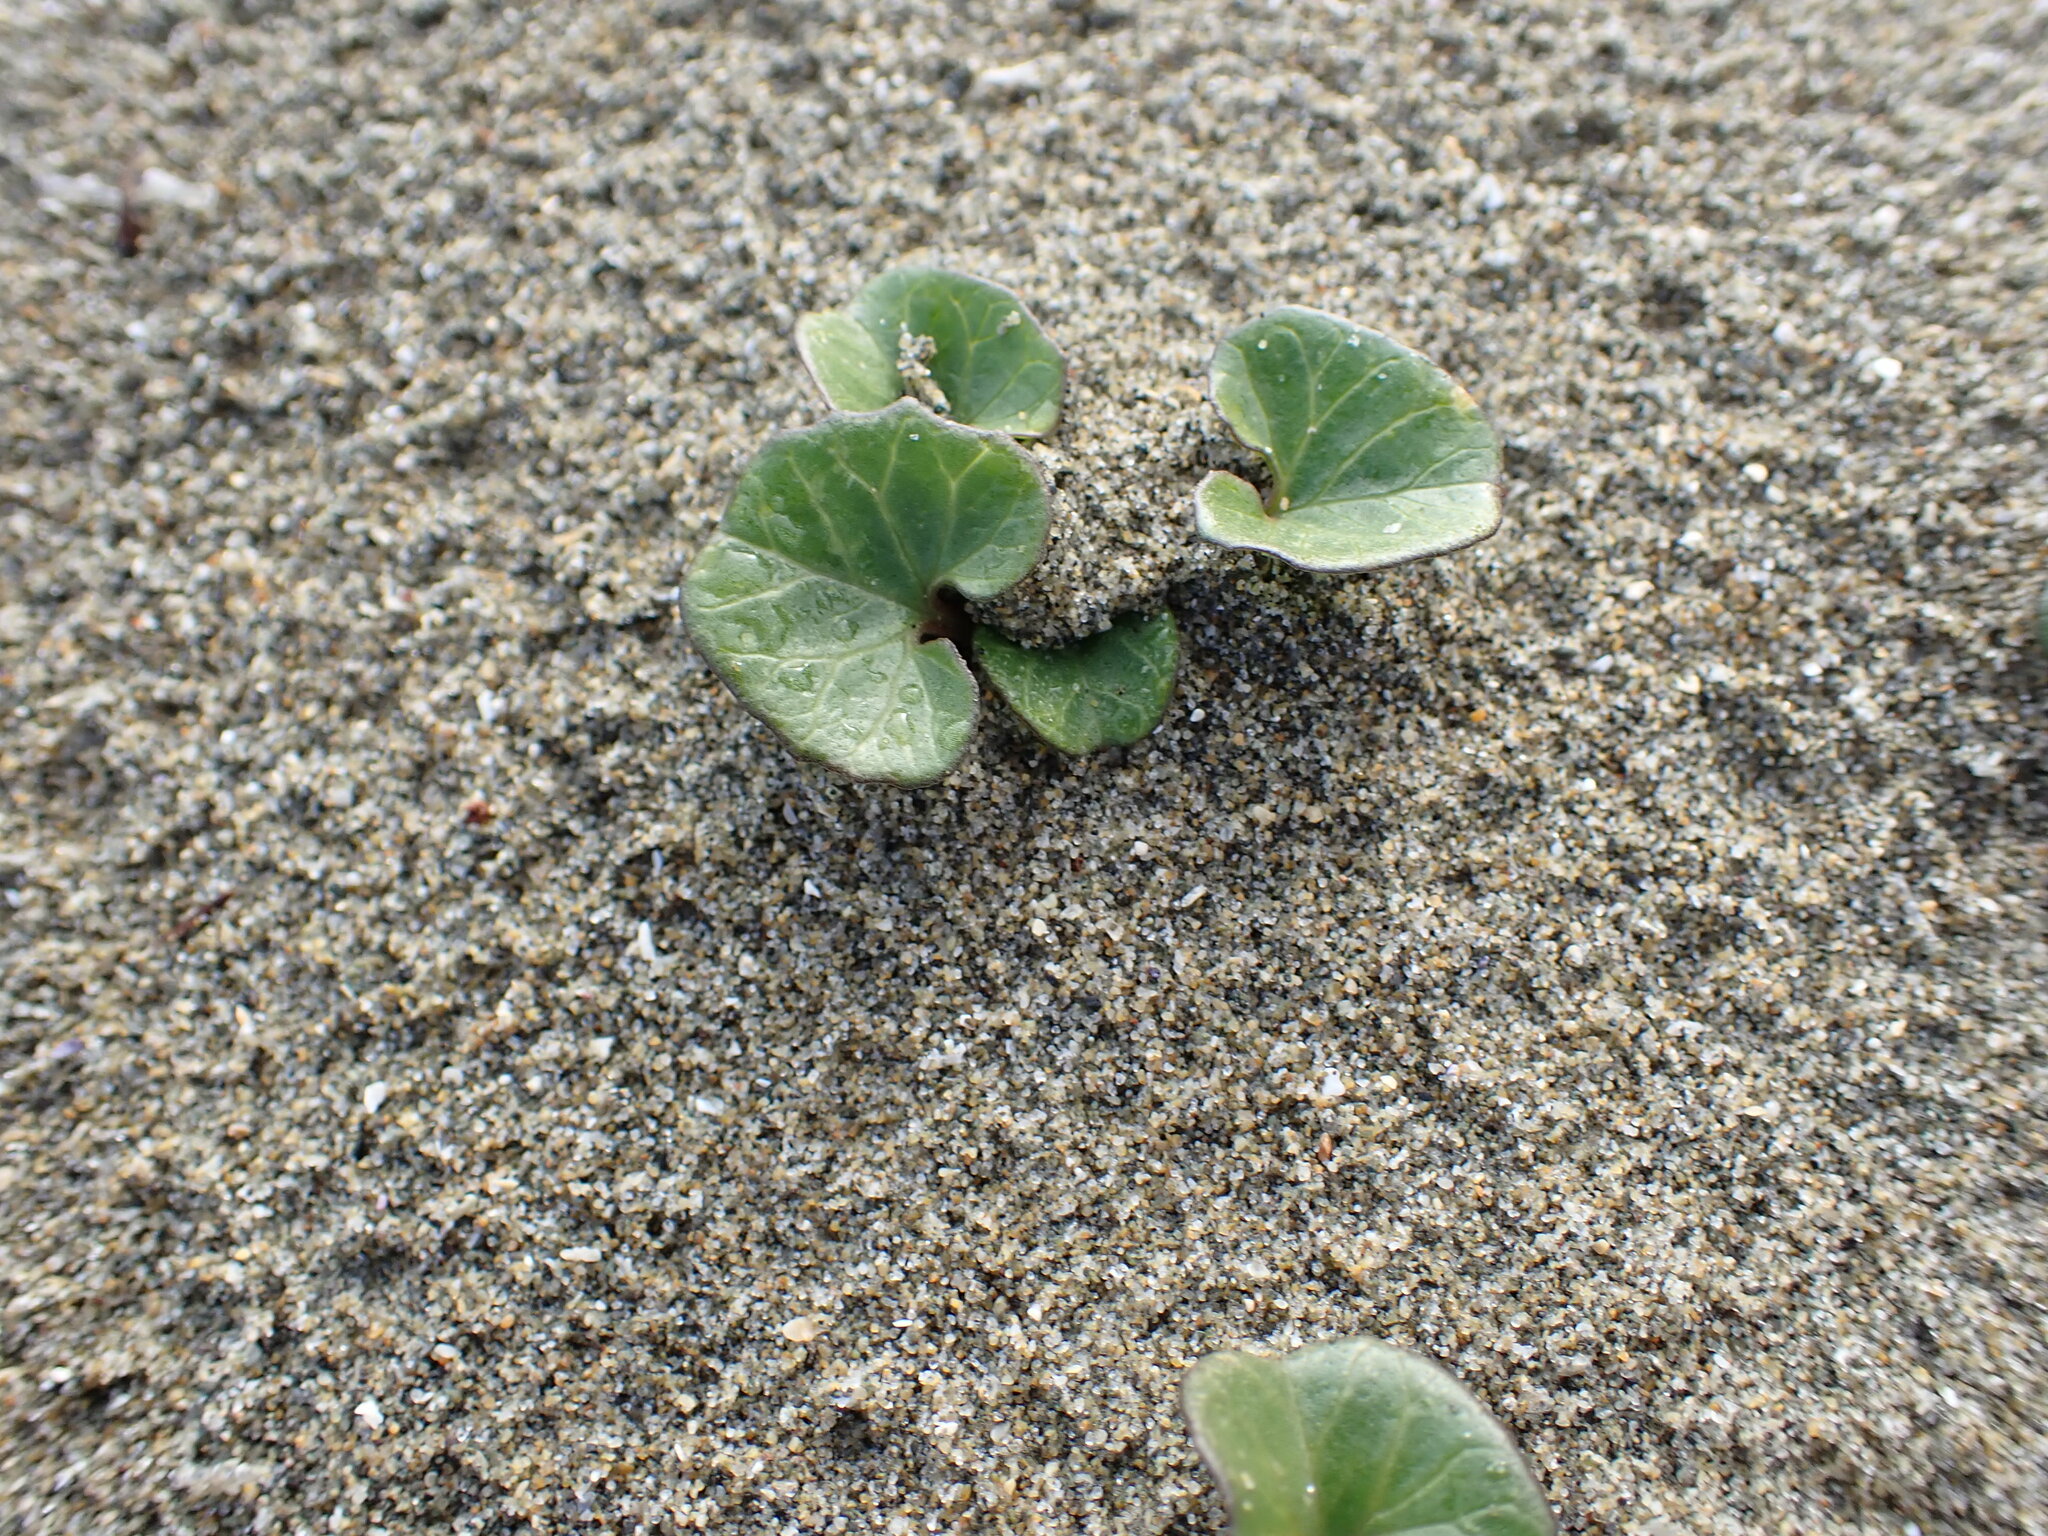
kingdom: Plantae
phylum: Tracheophyta
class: Magnoliopsida
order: Solanales
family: Convolvulaceae
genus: Calystegia
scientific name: Calystegia soldanella
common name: Sea bindweed
